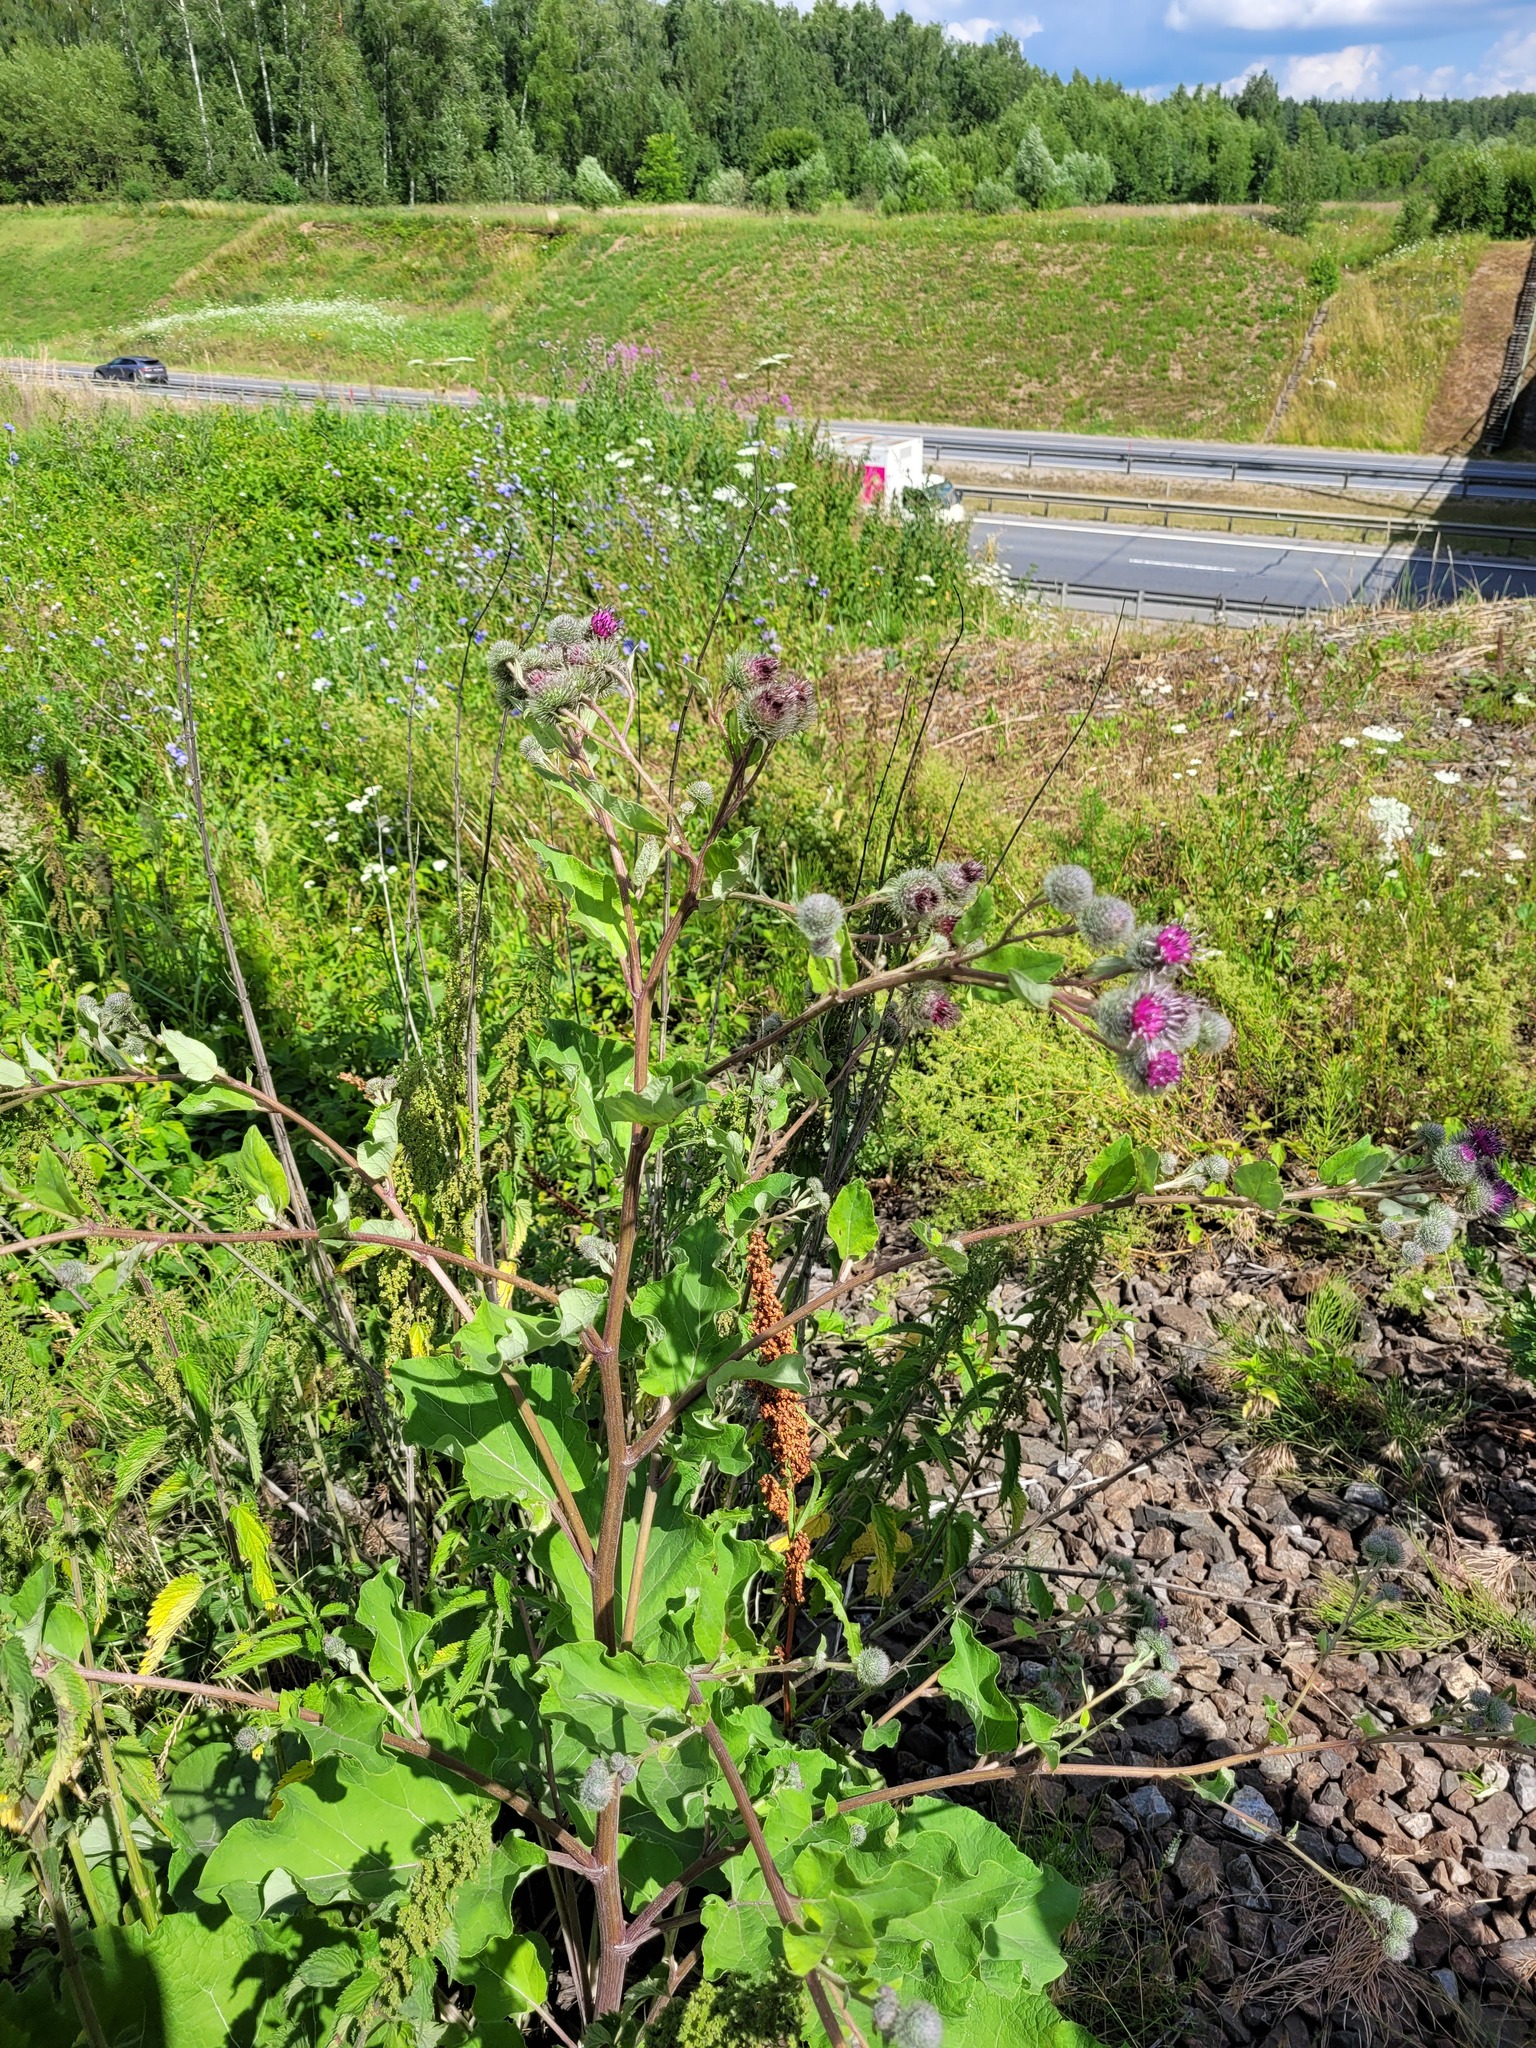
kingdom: Plantae
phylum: Tracheophyta
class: Magnoliopsida
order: Asterales
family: Asteraceae
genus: Arctium
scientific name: Arctium tomentosum
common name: Woolly burdock
